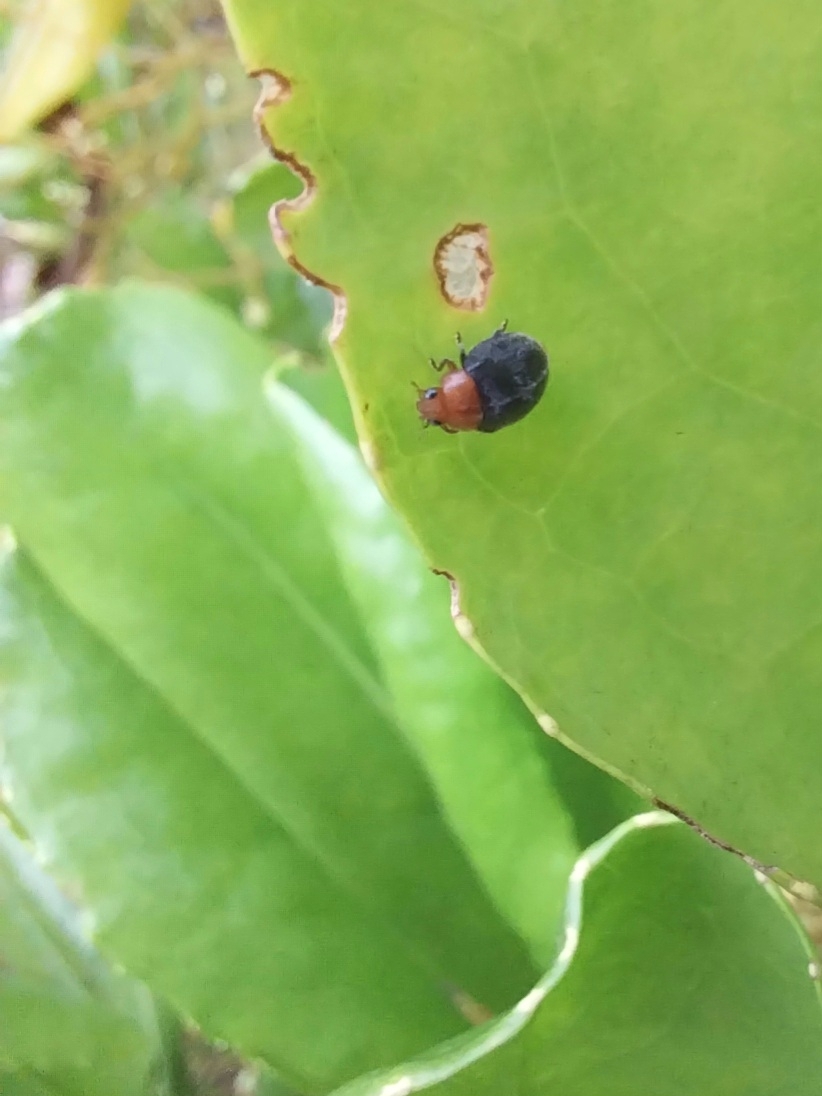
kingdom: Animalia
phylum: Arthropoda
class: Insecta
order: Coleoptera
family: Coccinellidae
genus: Cryptolaemus
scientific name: Cryptolaemus montrouzieri
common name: Mealybug destroyer
